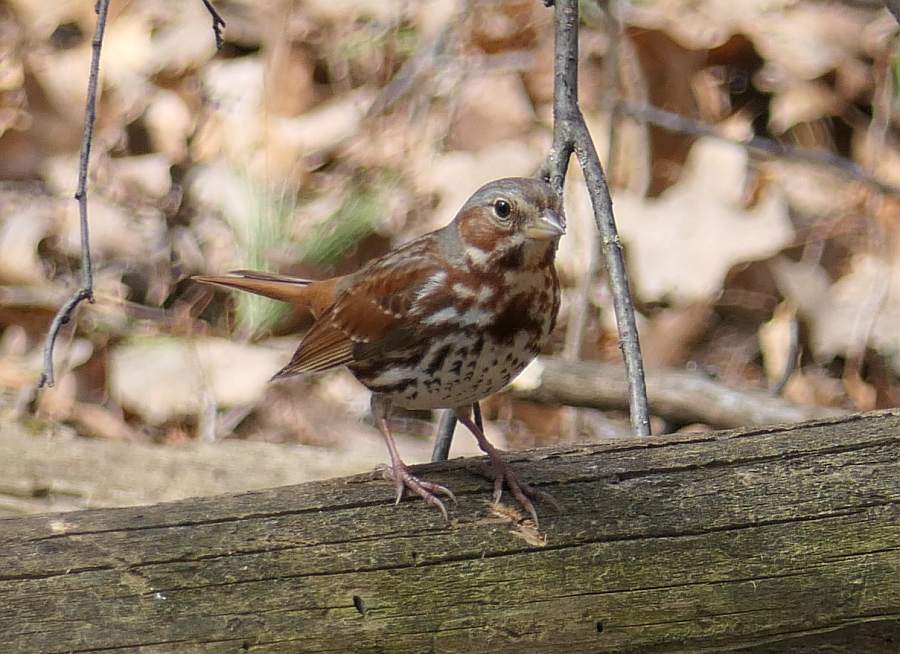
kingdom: Animalia
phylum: Chordata
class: Aves
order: Passeriformes
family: Passerellidae
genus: Passerella
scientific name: Passerella iliaca
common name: Fox sparrow
